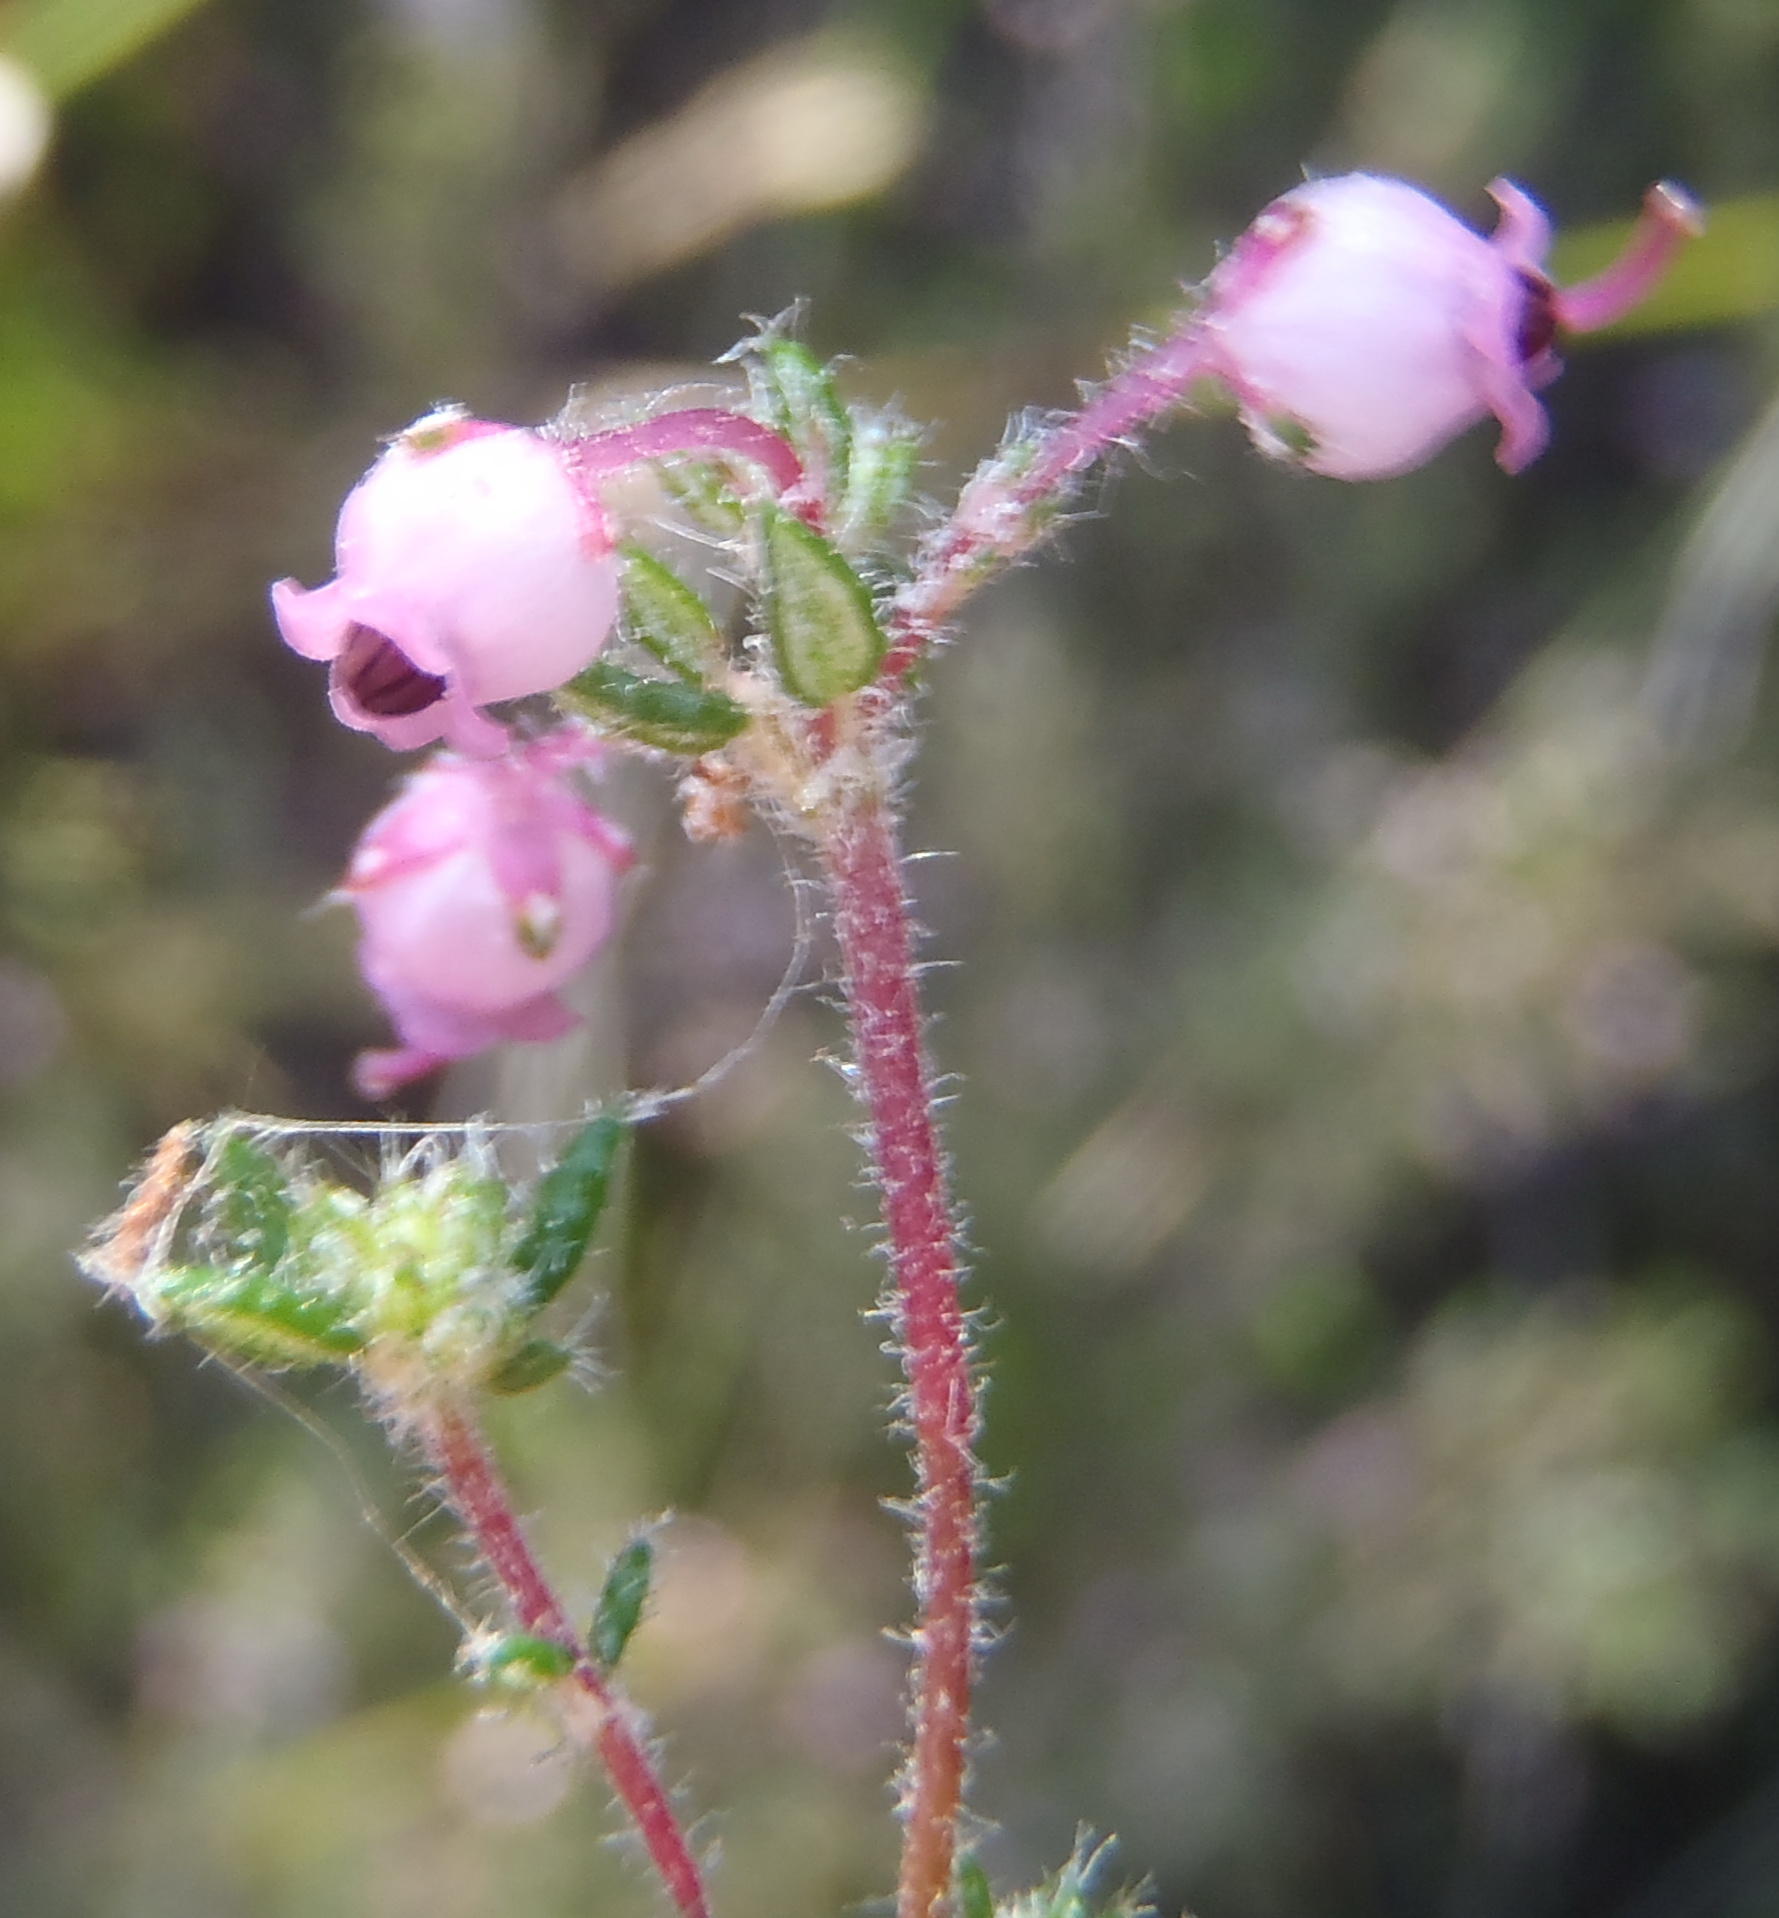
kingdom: Plantae
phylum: Tracheophyta
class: Magnoliopsida
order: Ericales
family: Ericaceae
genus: Erica
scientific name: Erica grata
